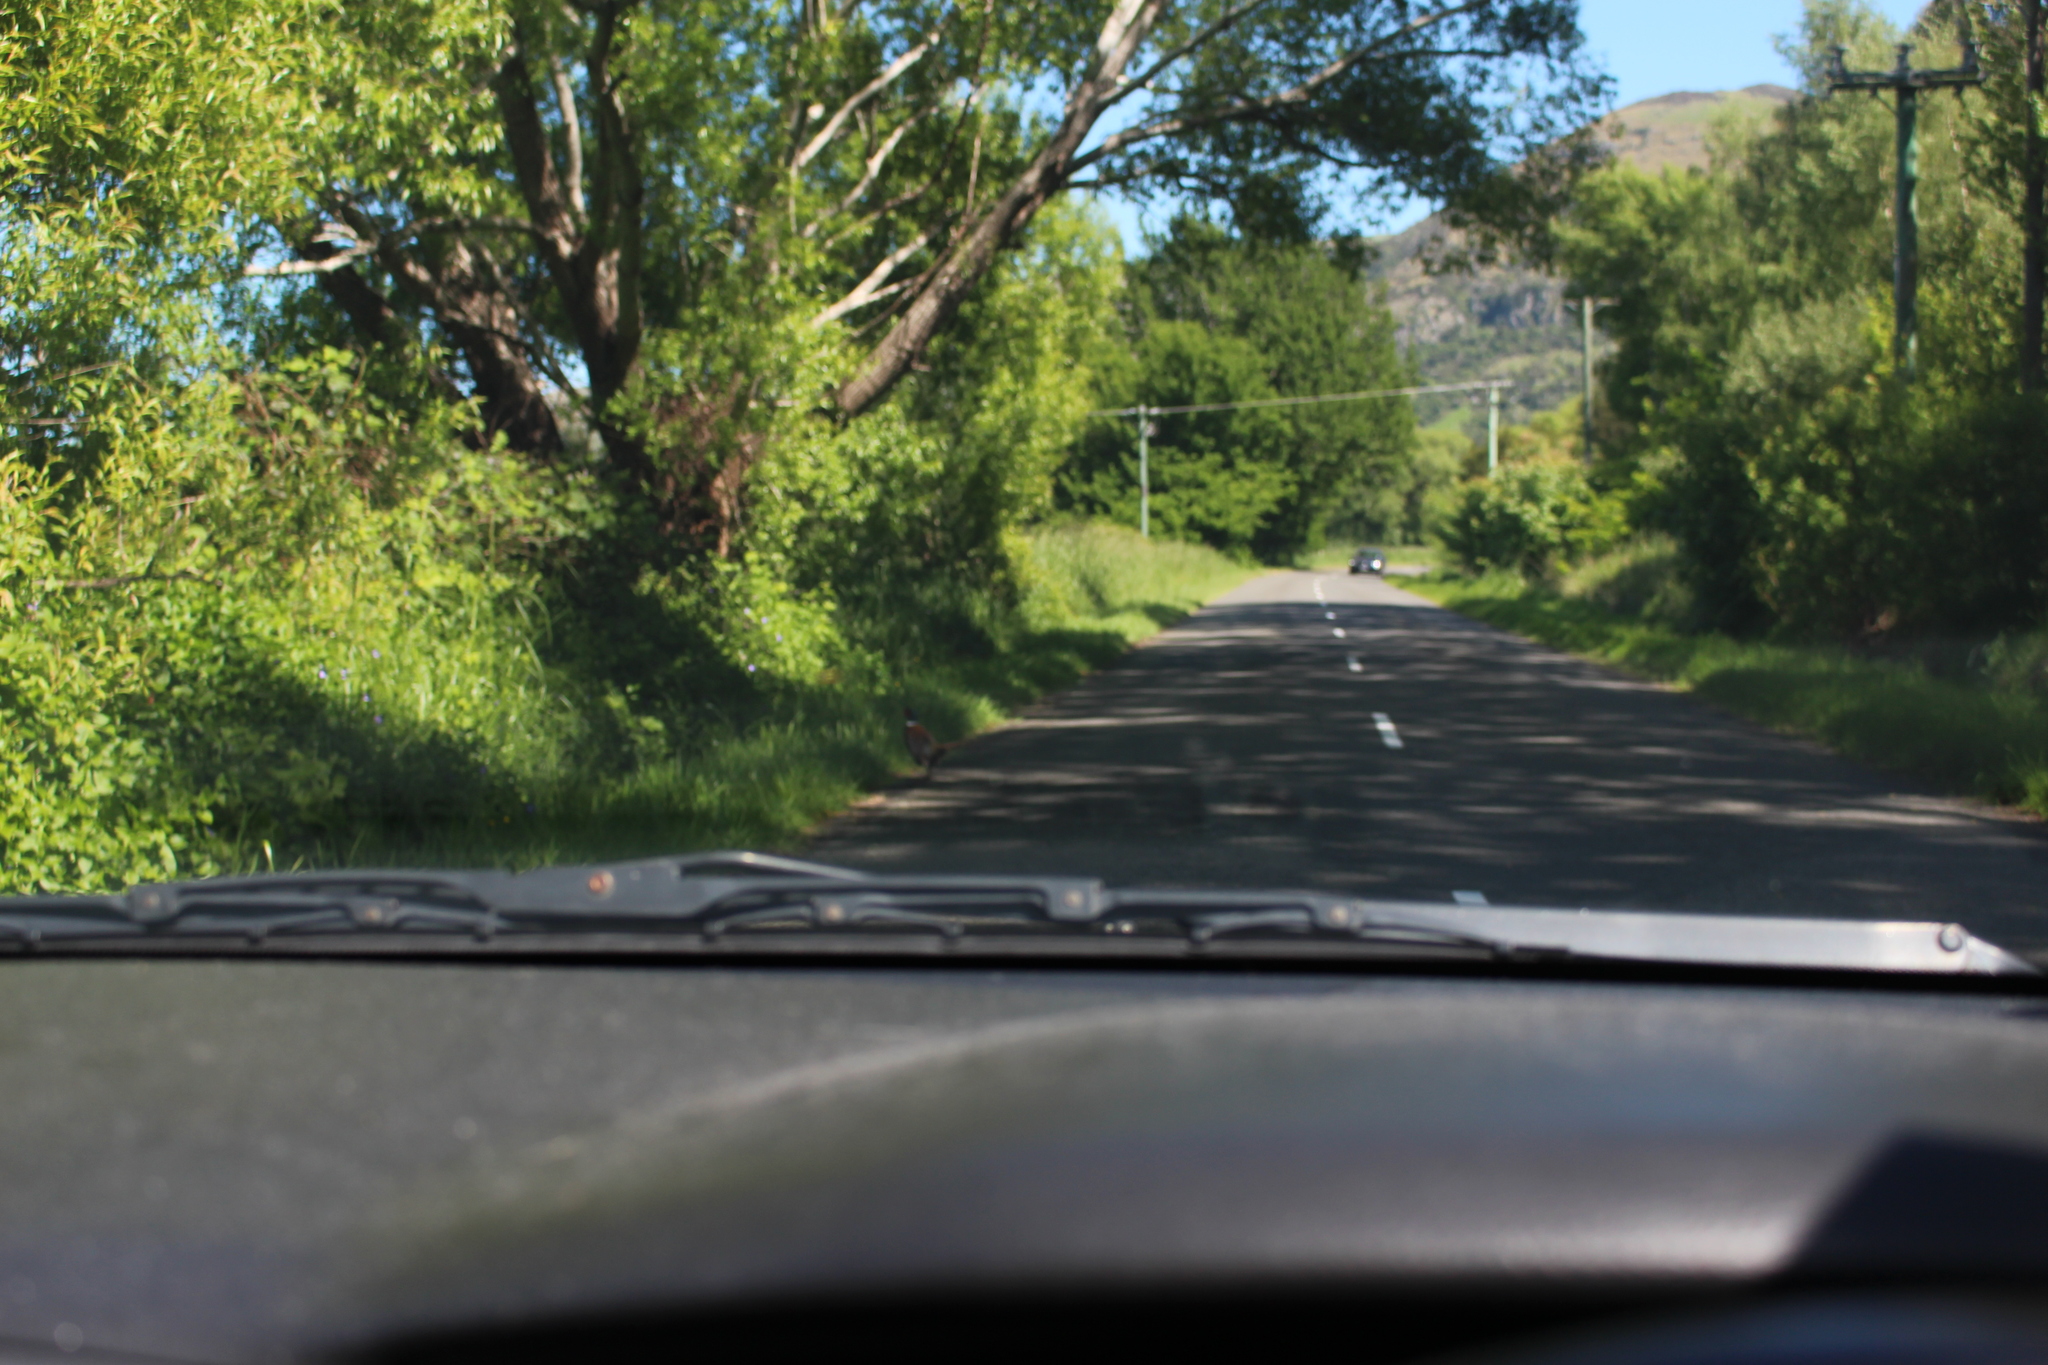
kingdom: Animalia
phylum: Chordata
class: Aves
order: Galliformes
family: Phasianidae
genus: Phasianus
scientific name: Phasianus colchicus
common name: Common pheasant
